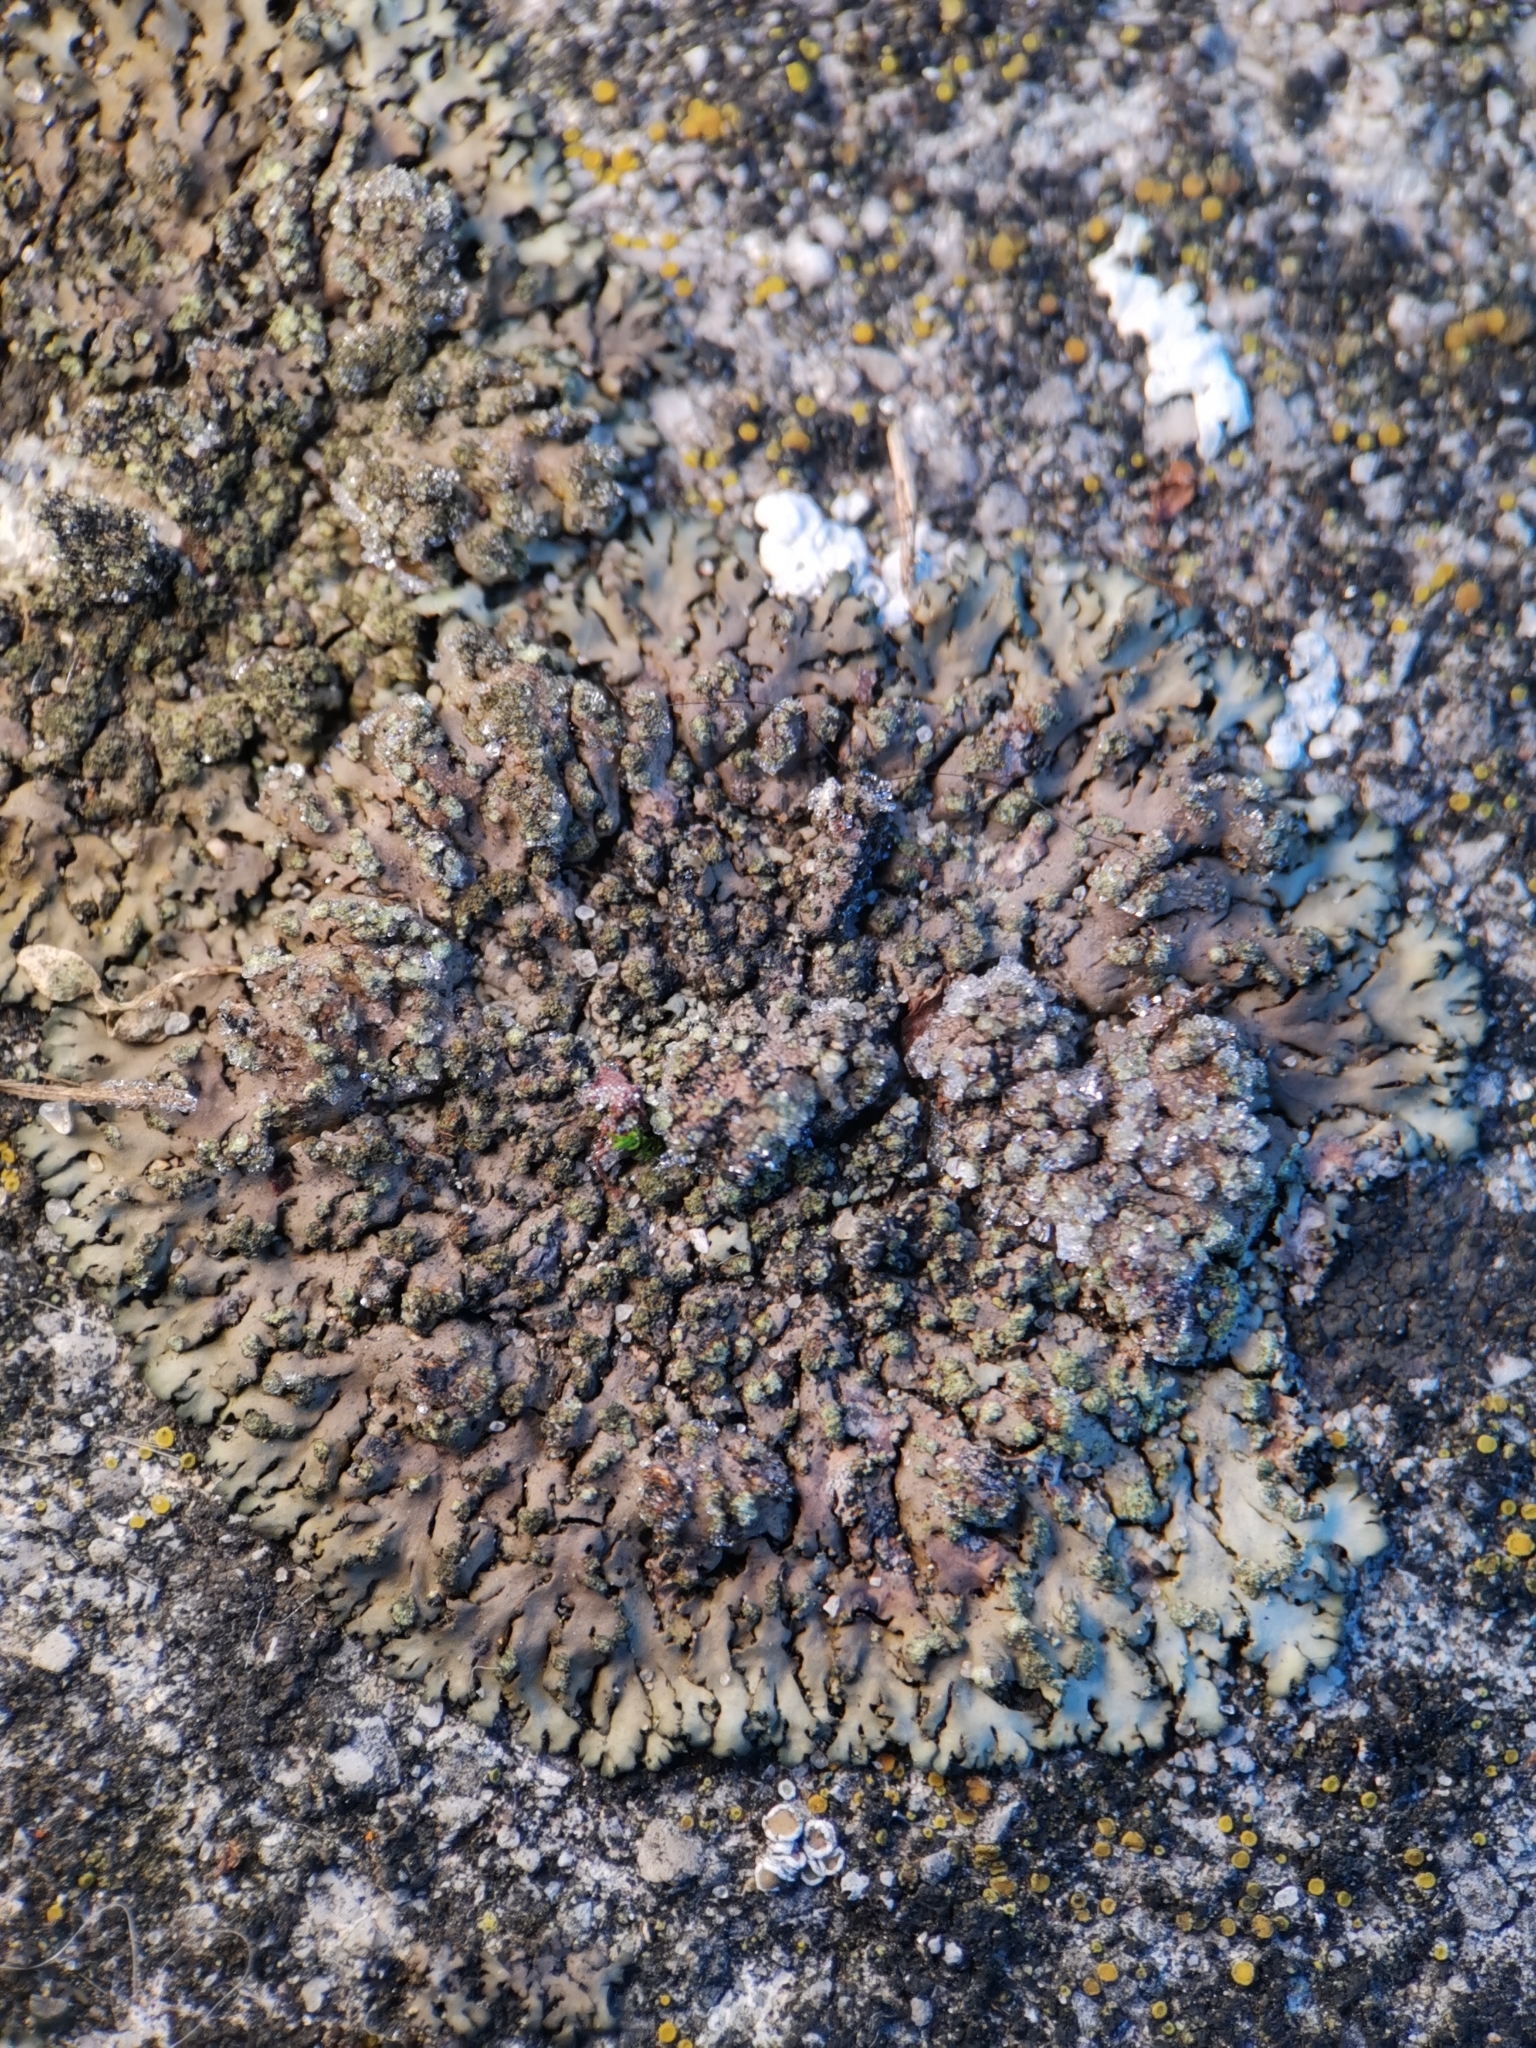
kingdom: Fungi
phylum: Ascomycota
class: Lecanoromycetes
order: Caliciales
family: Physciaceae
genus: Phaeophyscia
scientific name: Phaeophyscia orbicularis
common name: Mealy shadow lichen
